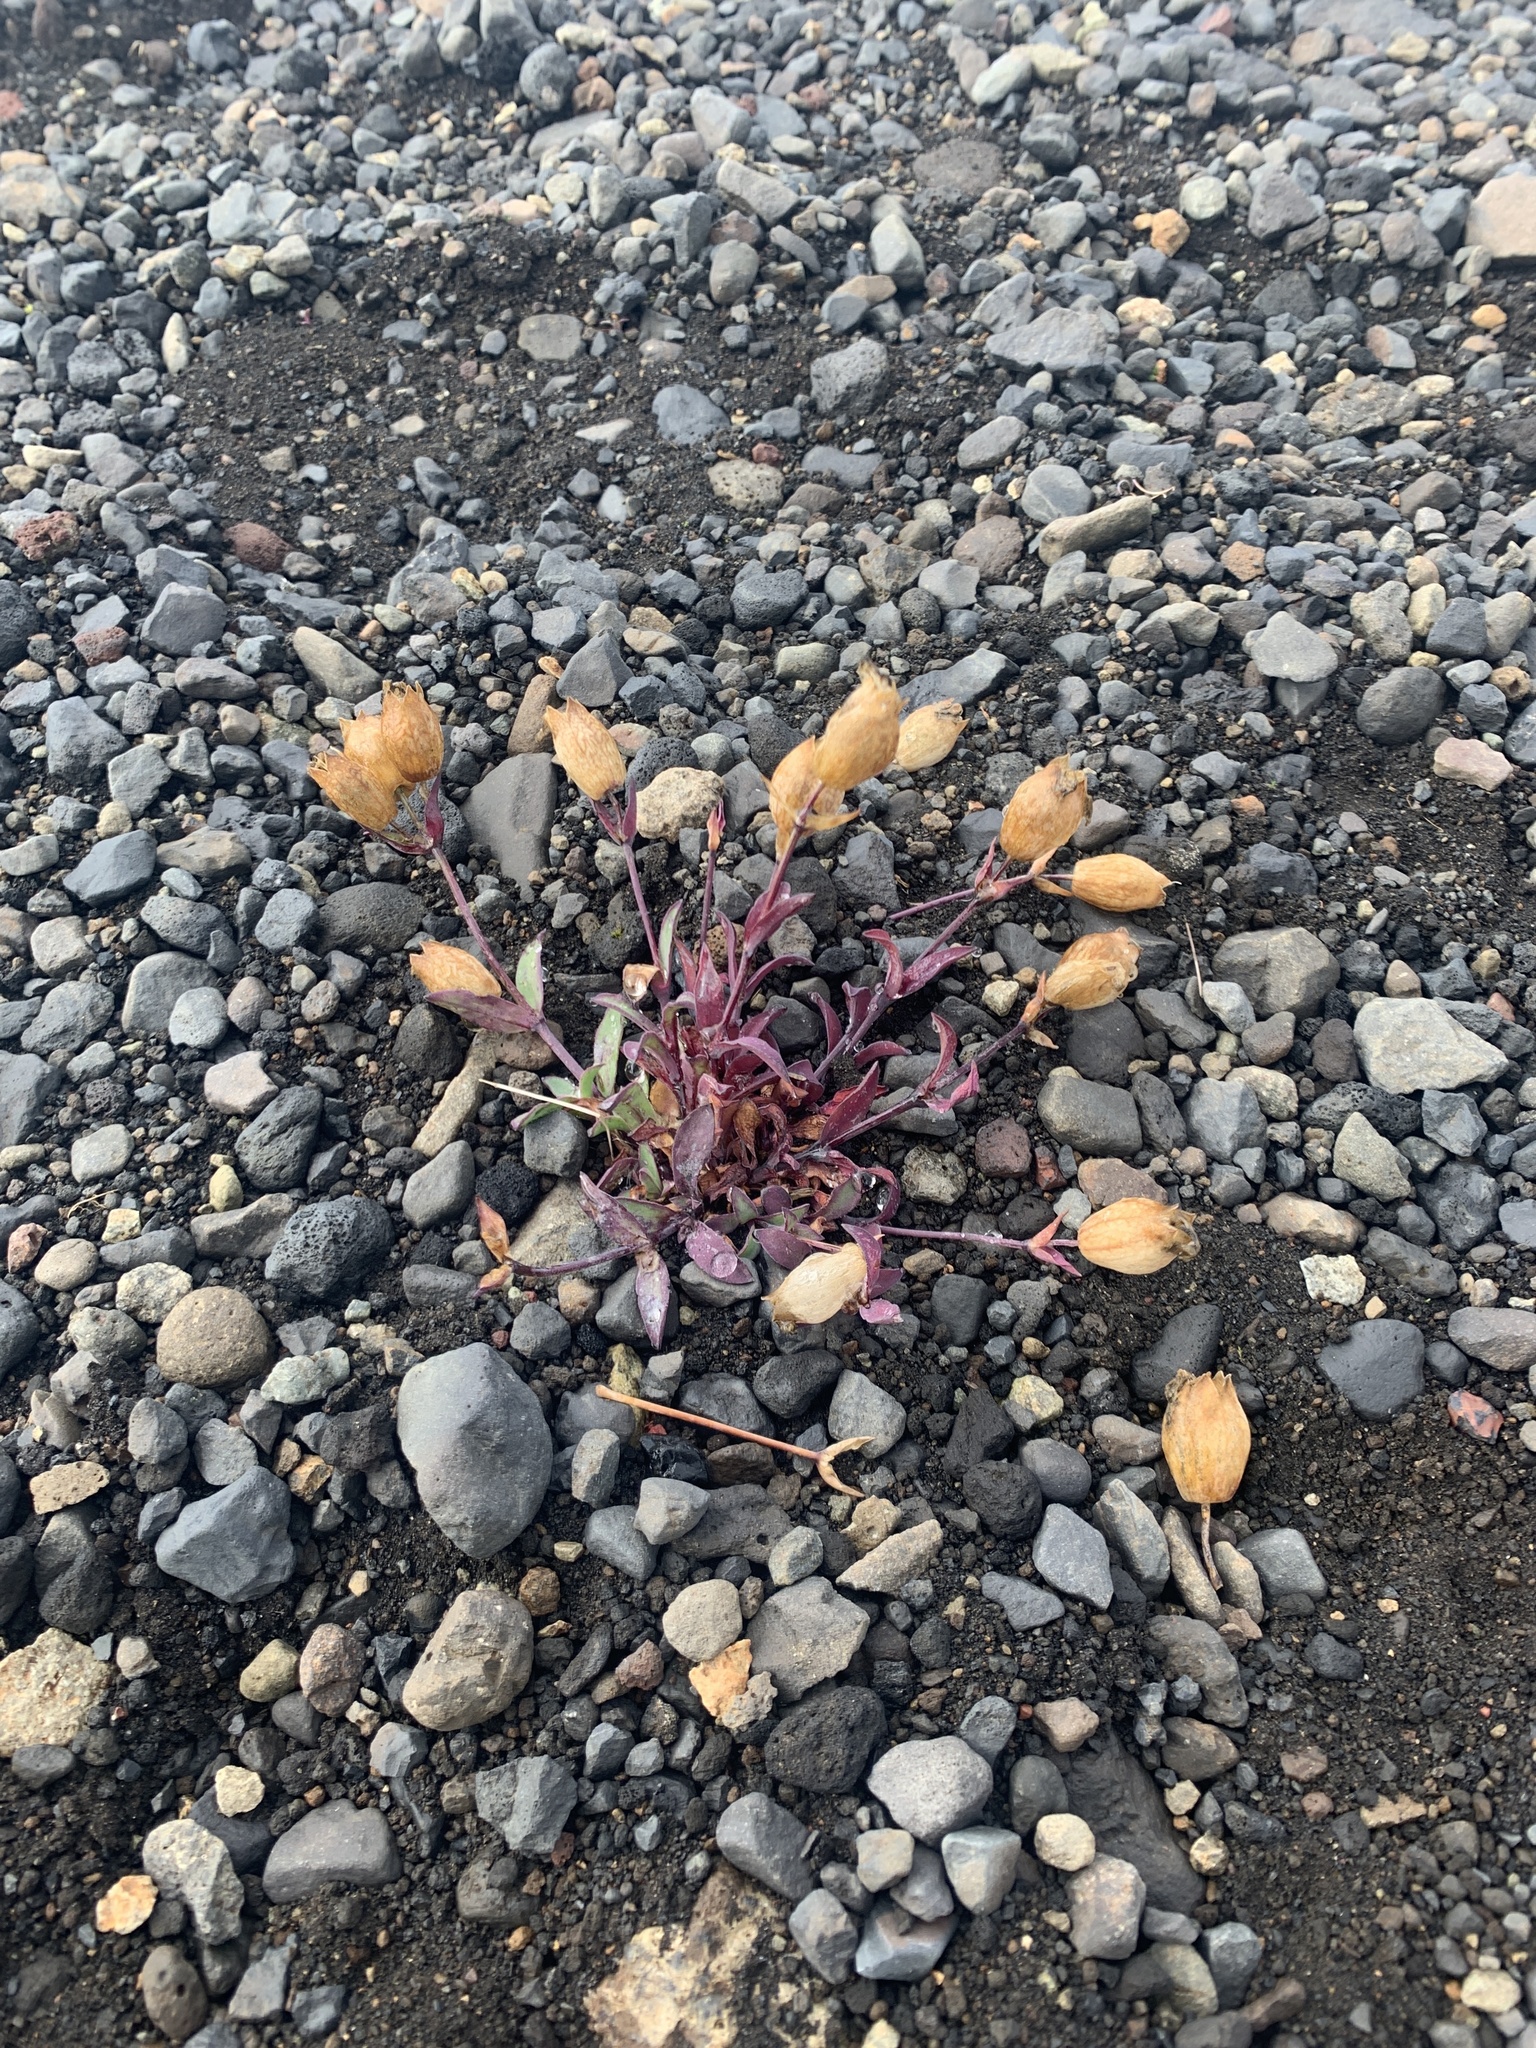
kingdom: Plantae
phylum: Tracheophyta
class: Magnoliopsida
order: Caryophyllales
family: Caryophyllaceae
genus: Silene
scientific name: Silene uniflora
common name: Sea campion
